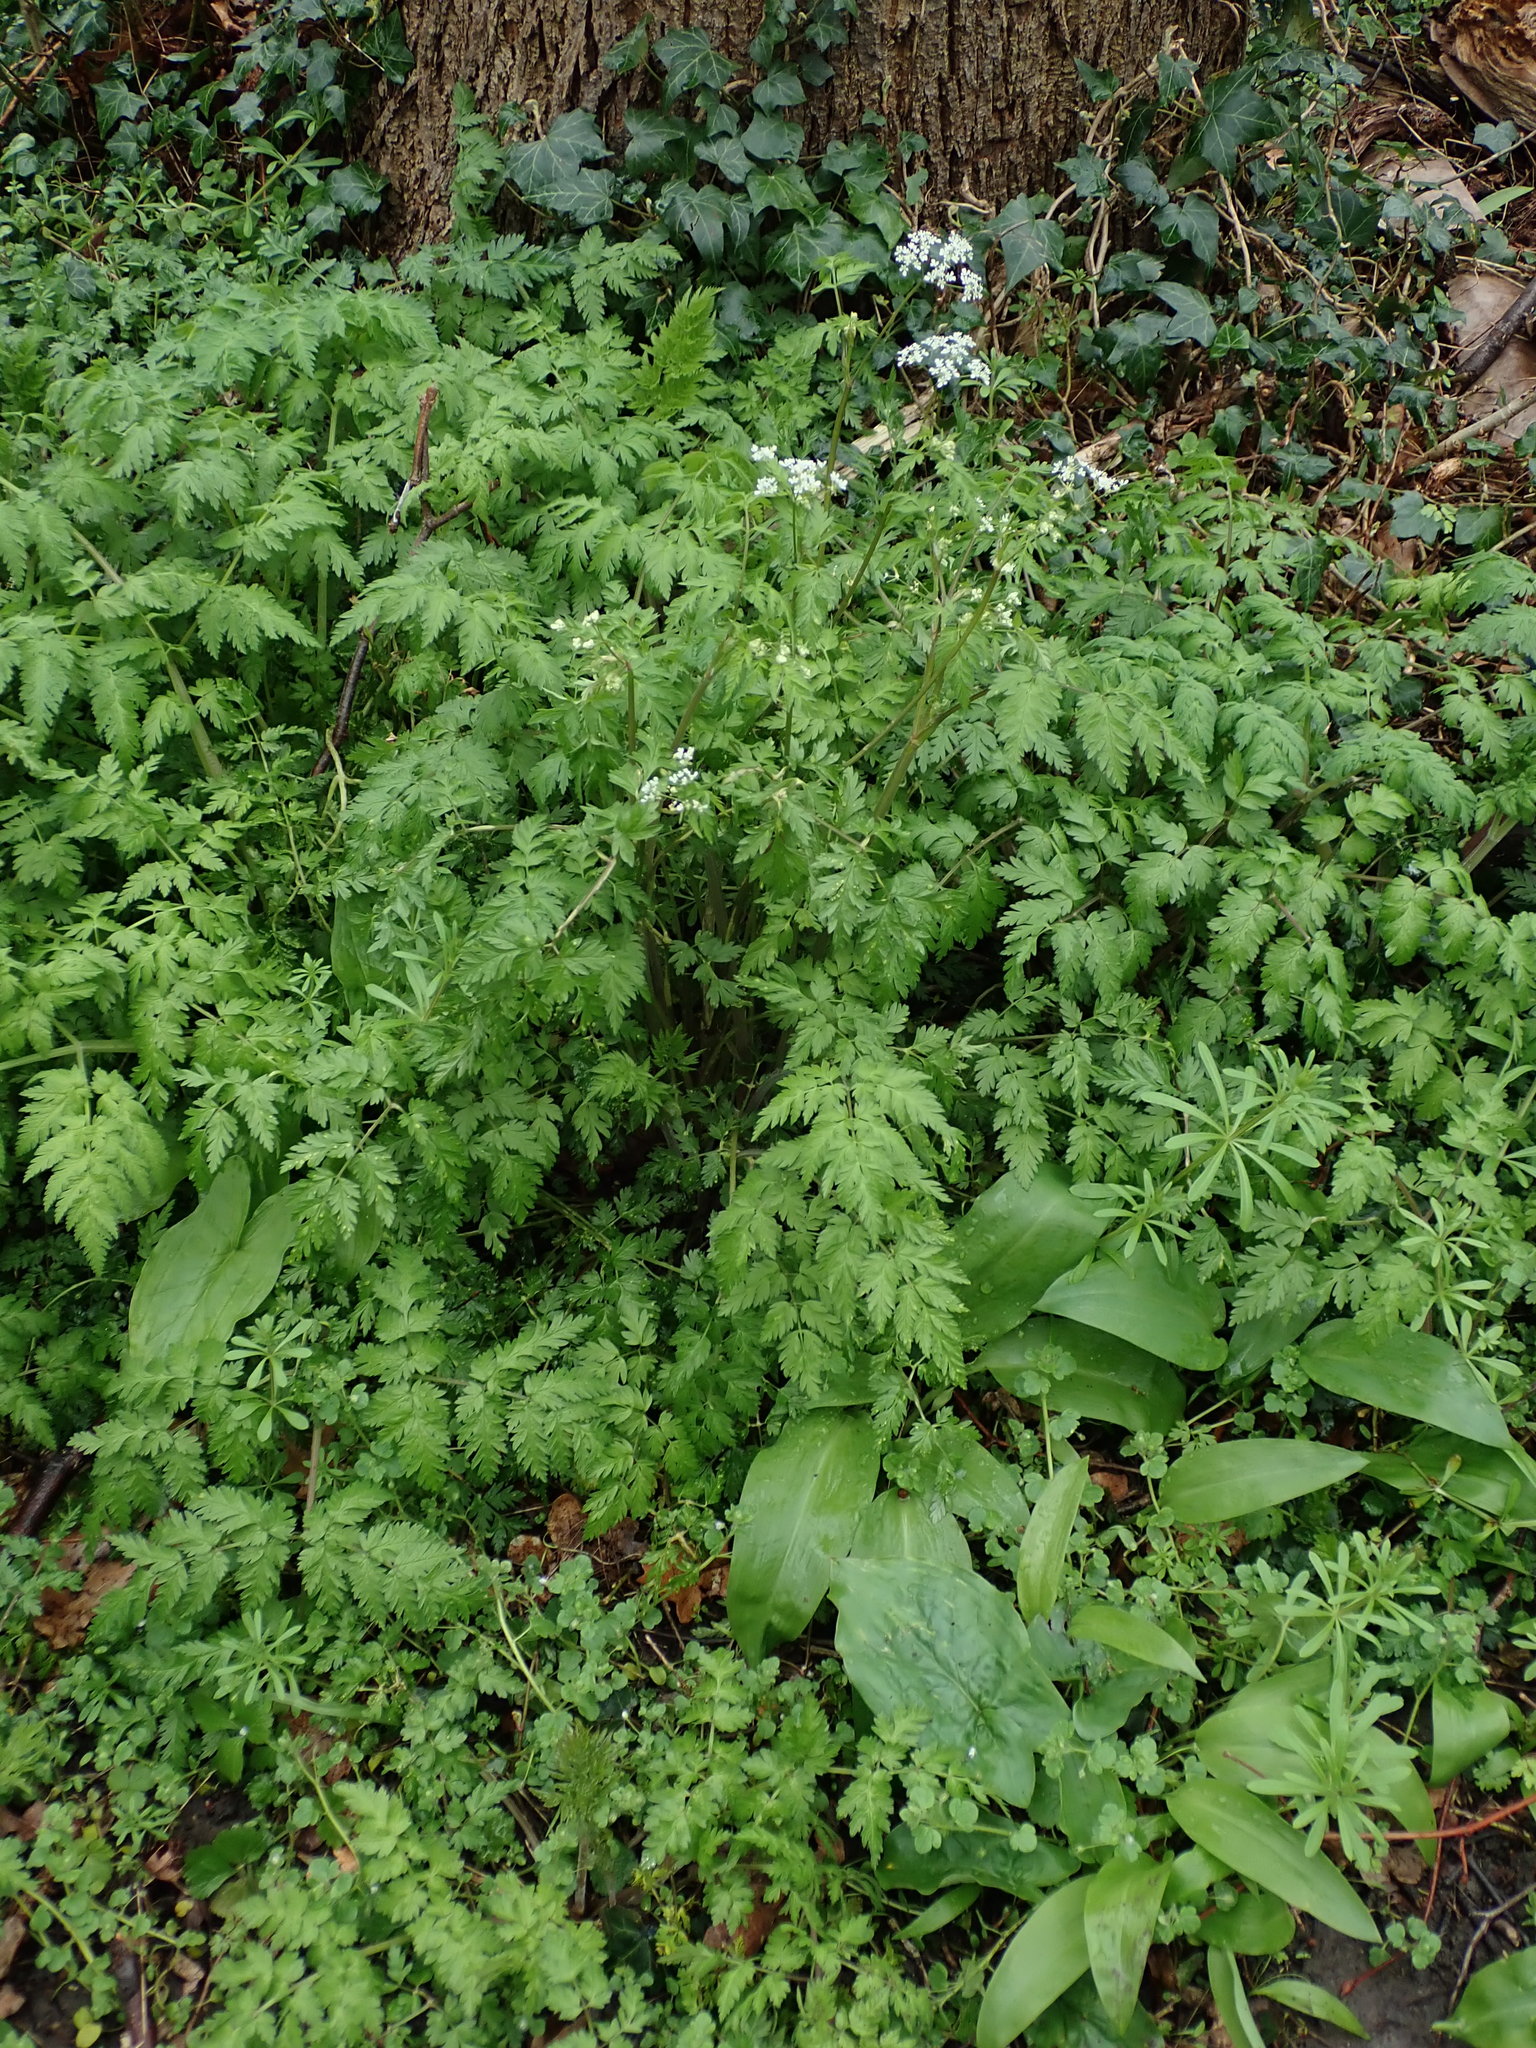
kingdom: Plantae
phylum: Tracheophyta
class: Magnoliopsida
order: Apiales
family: Apiaceae
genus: Anthriscus
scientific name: Anthriscus sylvestris
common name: Cow parsley
